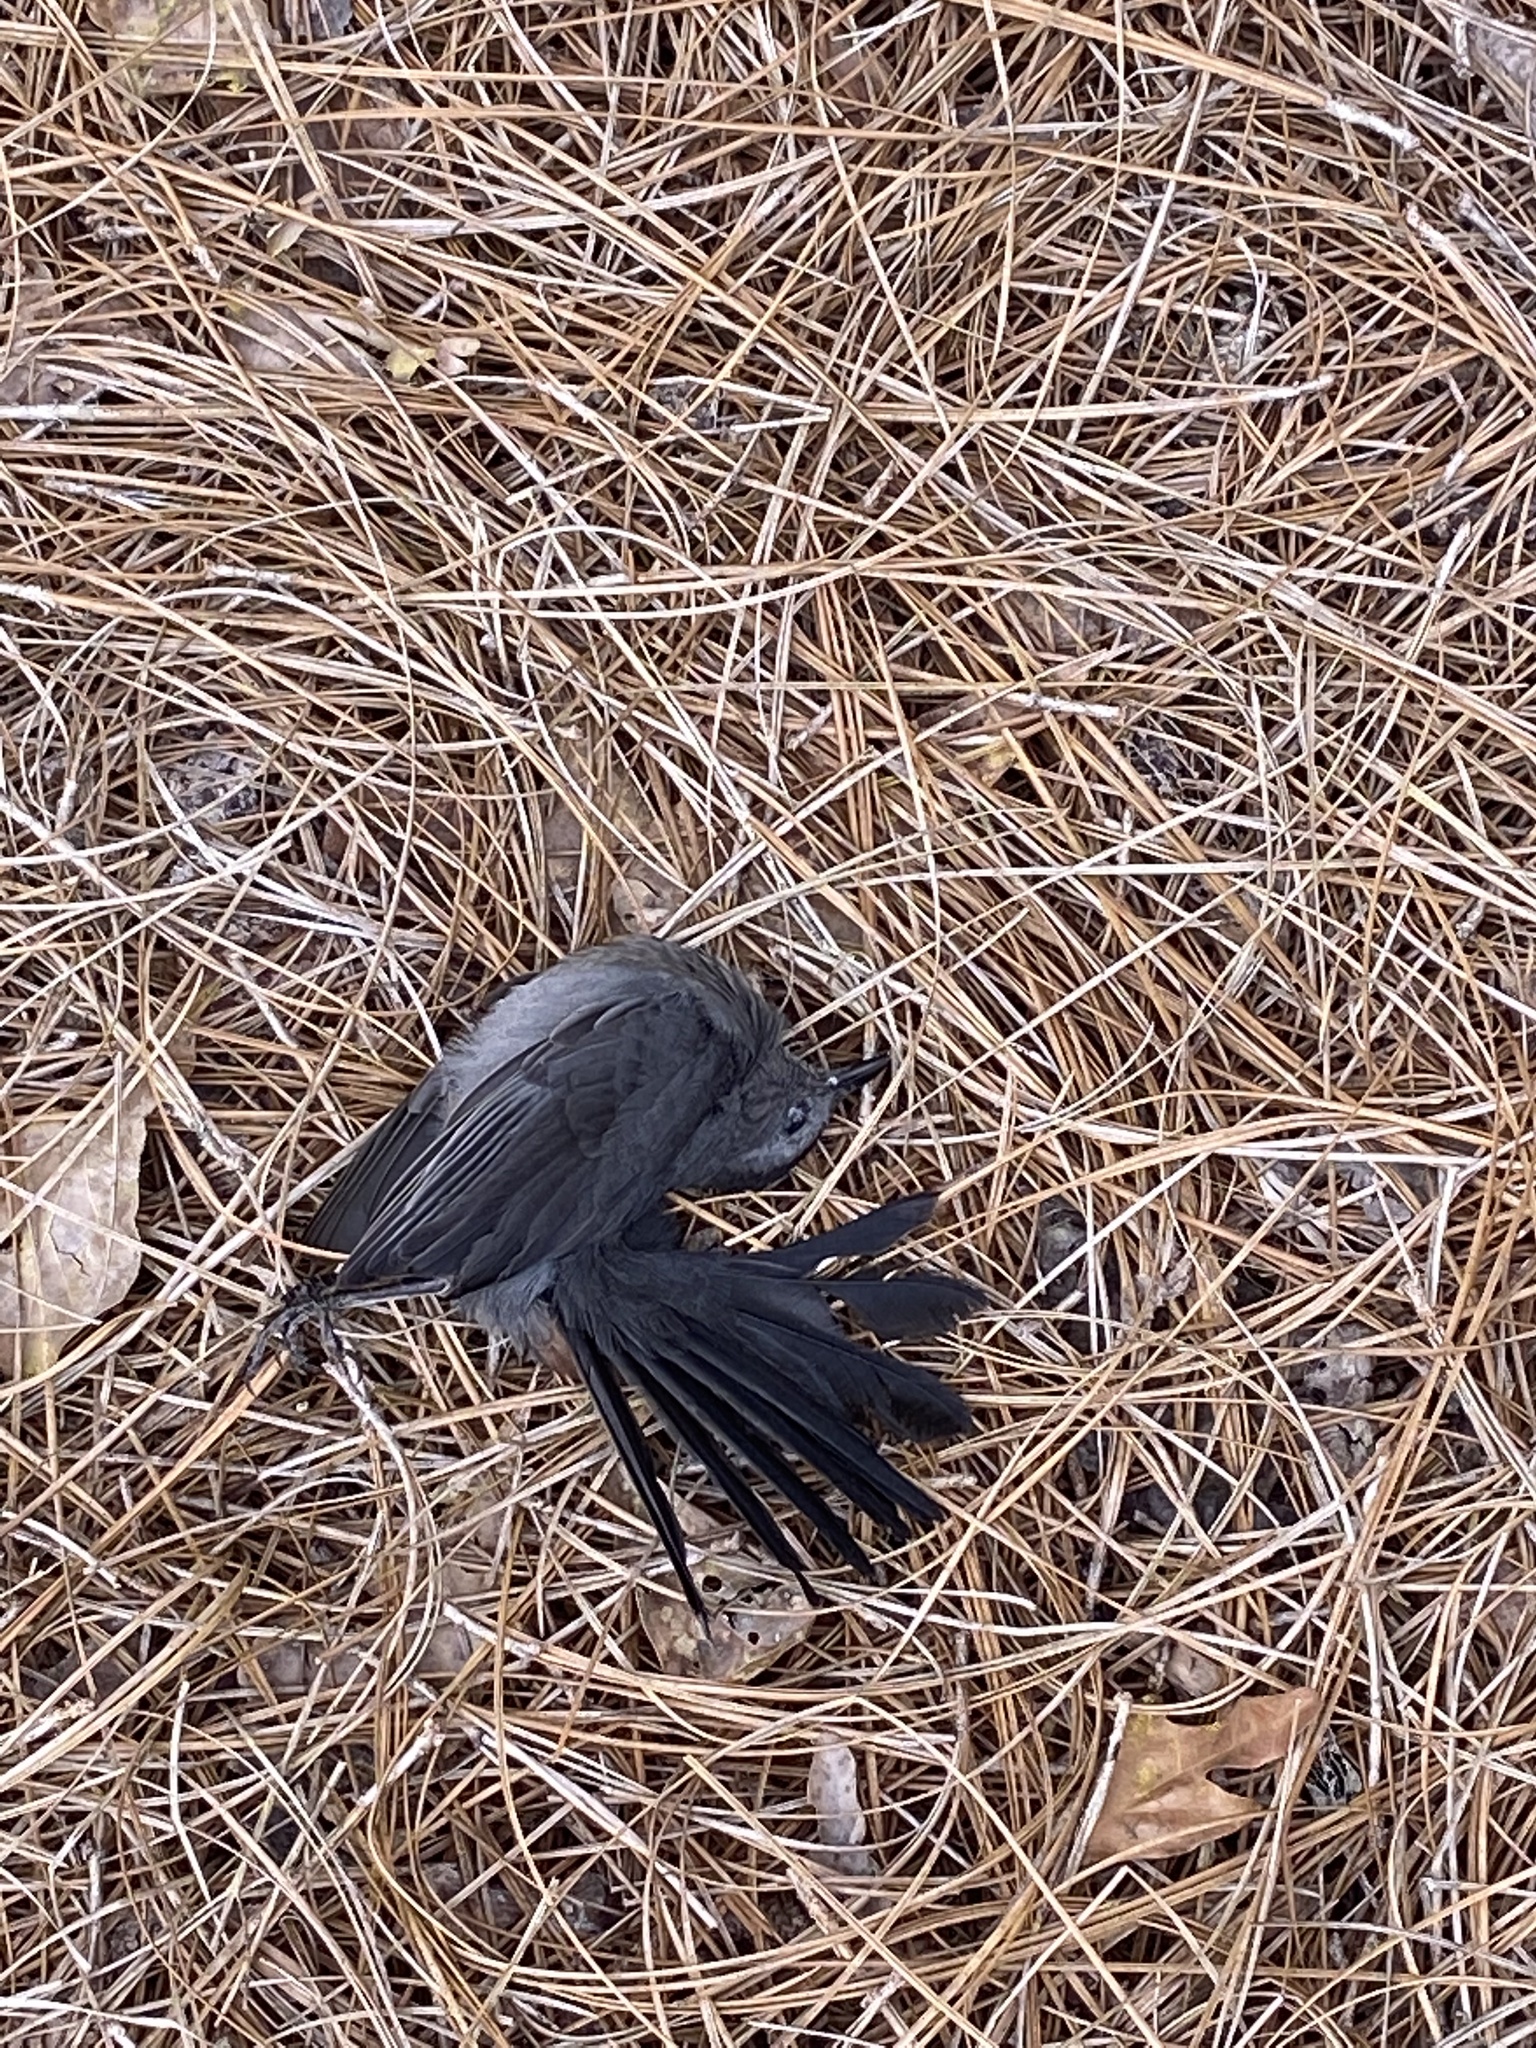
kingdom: Animalia
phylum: Chordata
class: Aves
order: Passeriformes
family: Mimidae
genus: Dumetella
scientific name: Dumetella carolinensis
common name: Gray catbird
